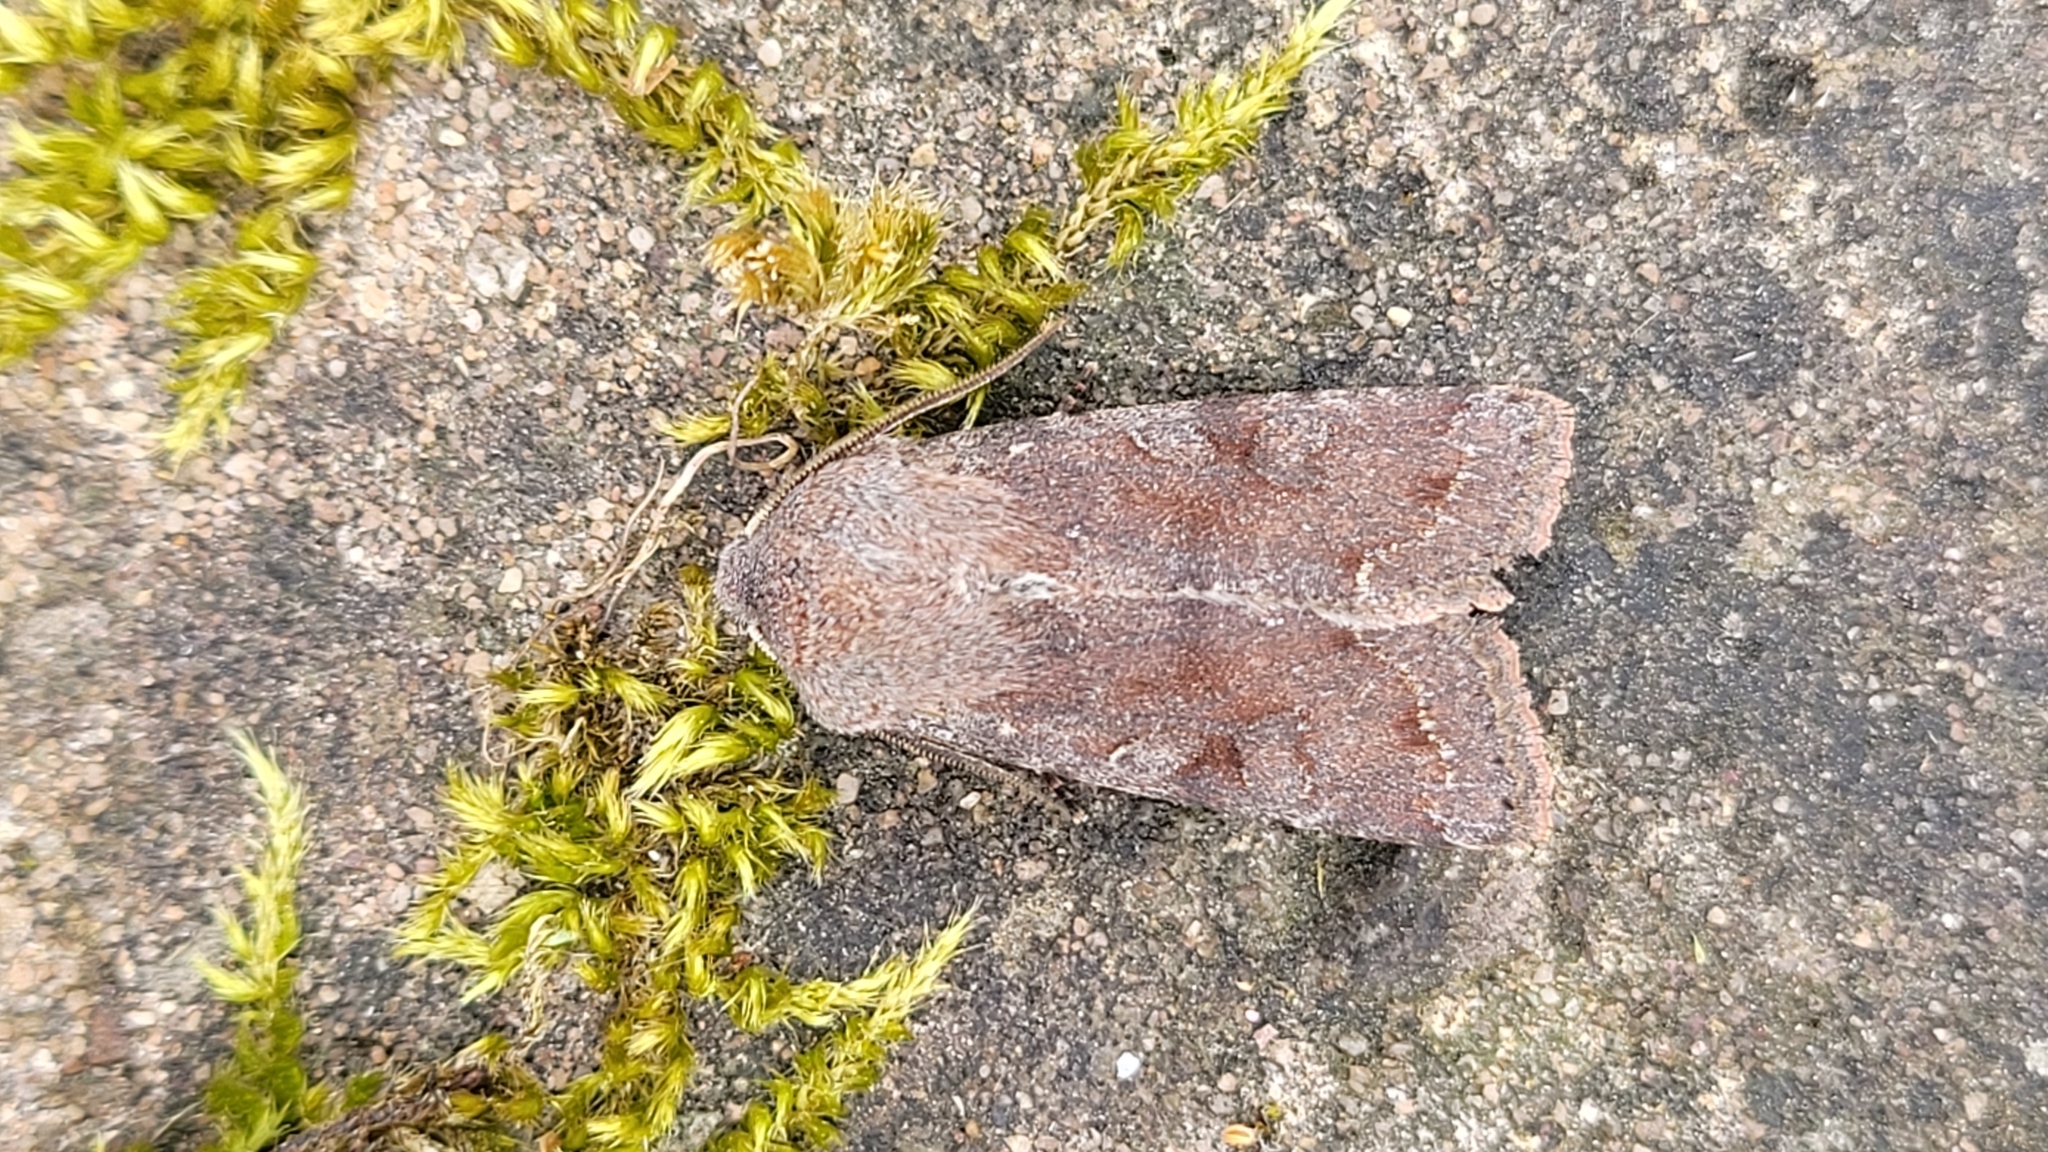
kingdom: Animalia
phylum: Arthropoda
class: Insecta
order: Lepidoptera
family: Noctuidae
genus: Orthosia
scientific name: Orthosia incerta
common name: Clouded drab
